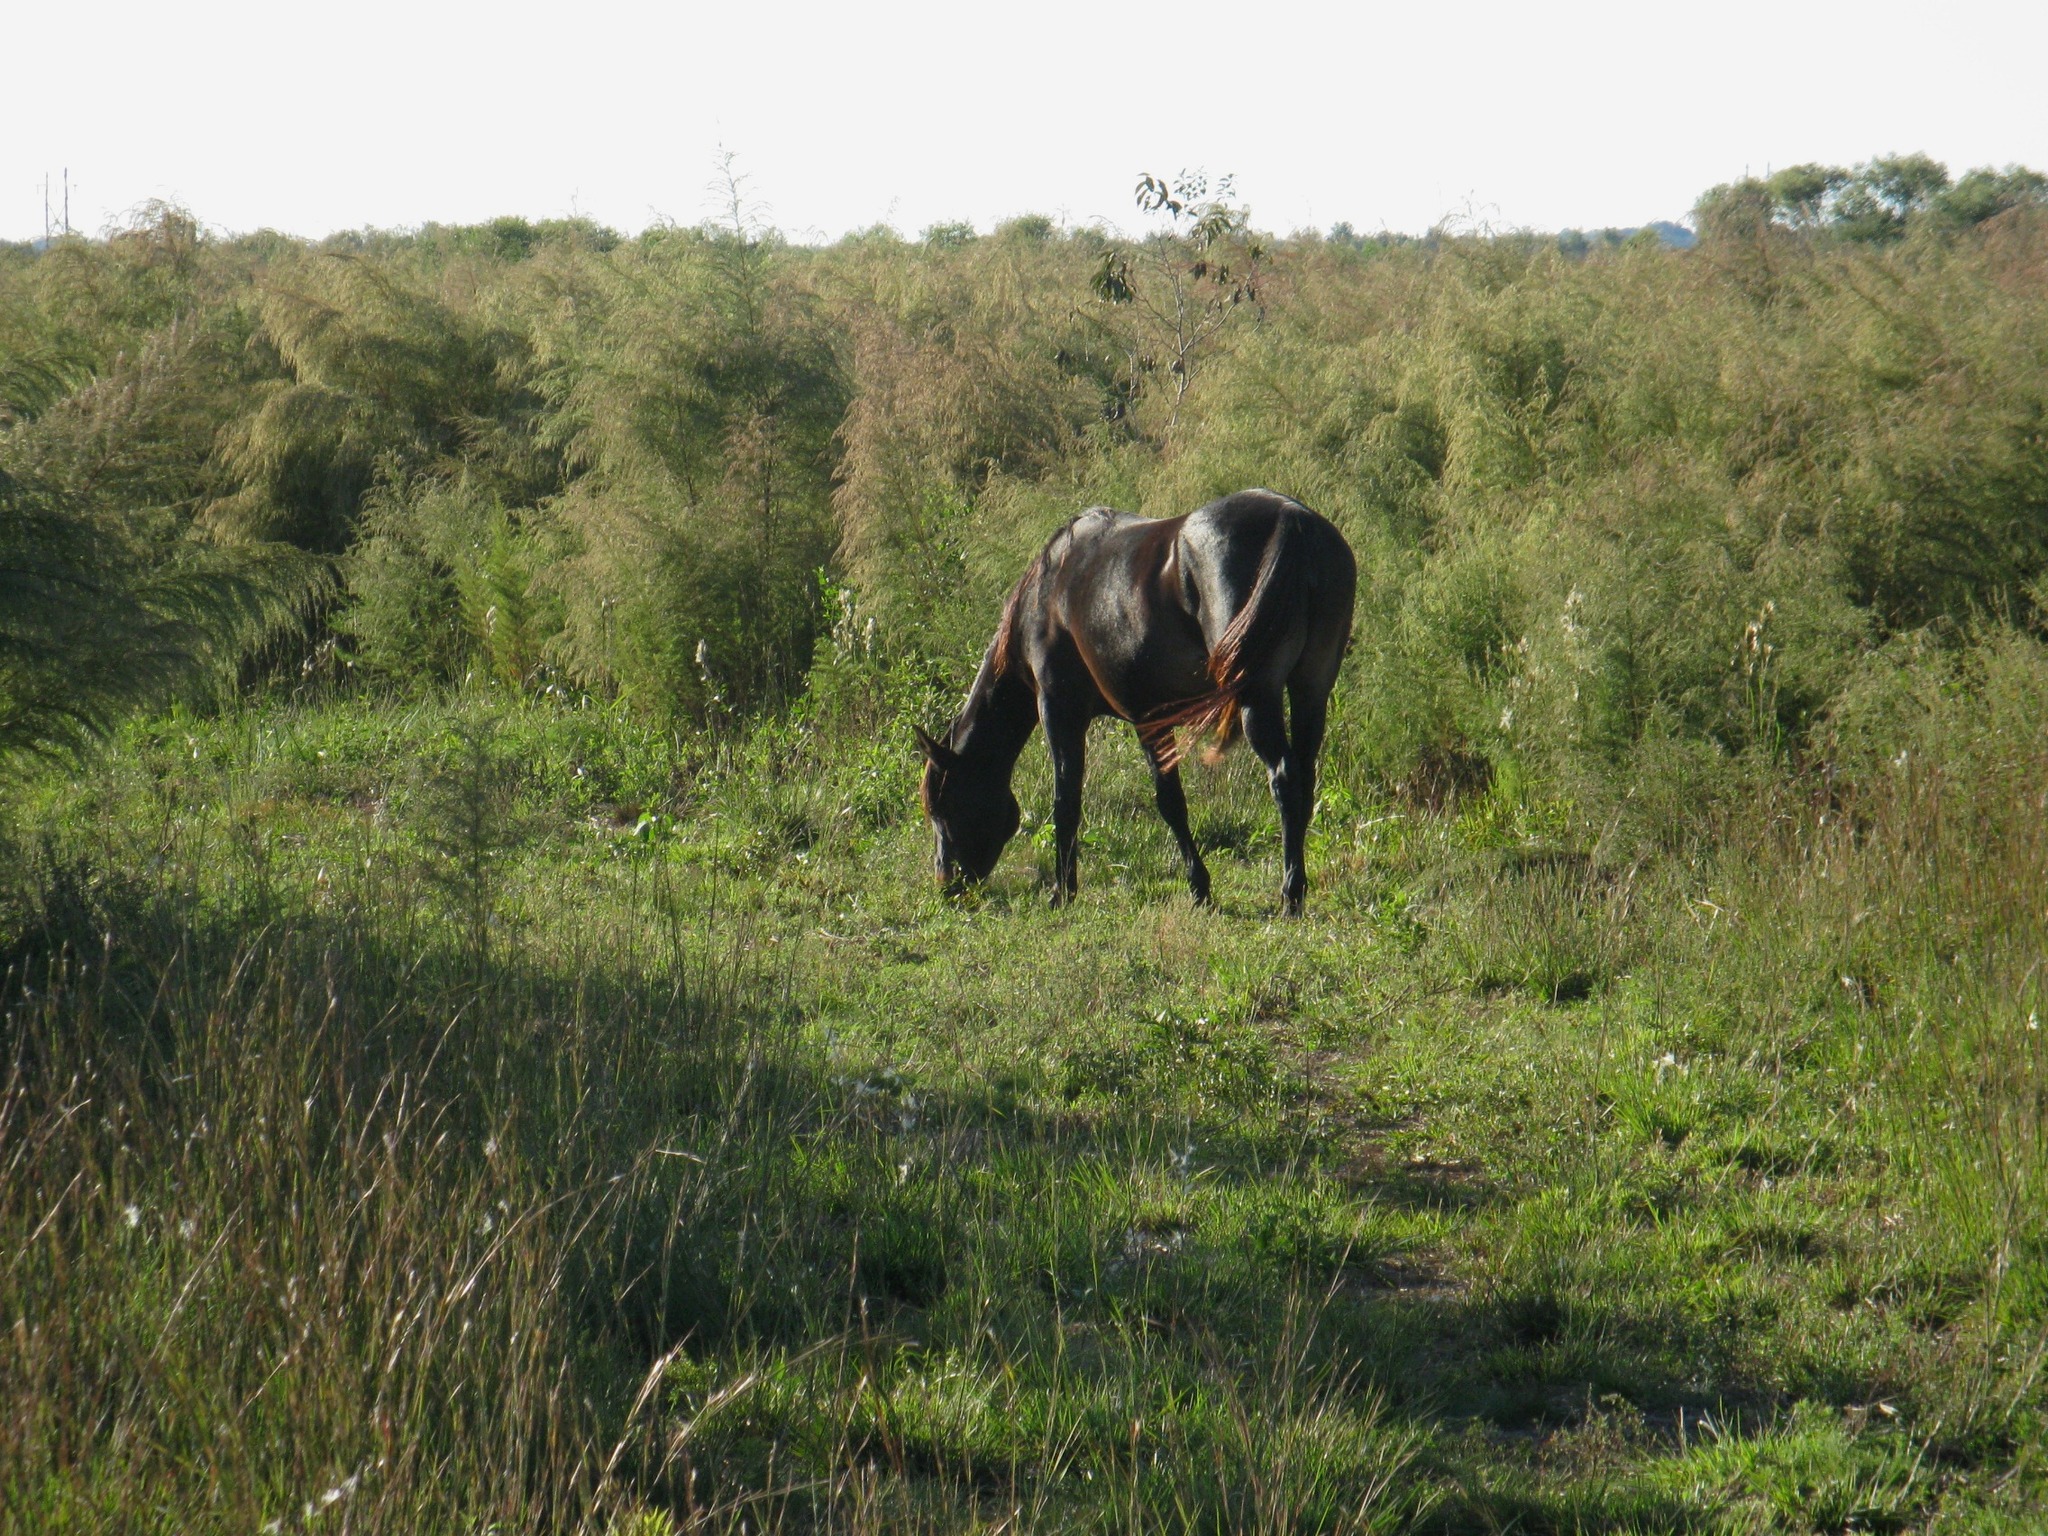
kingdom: Animalia
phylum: Chordata
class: Mammalia
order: Perissodactyla
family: Equidae
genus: Equus
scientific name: Equus caballus
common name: Horse
